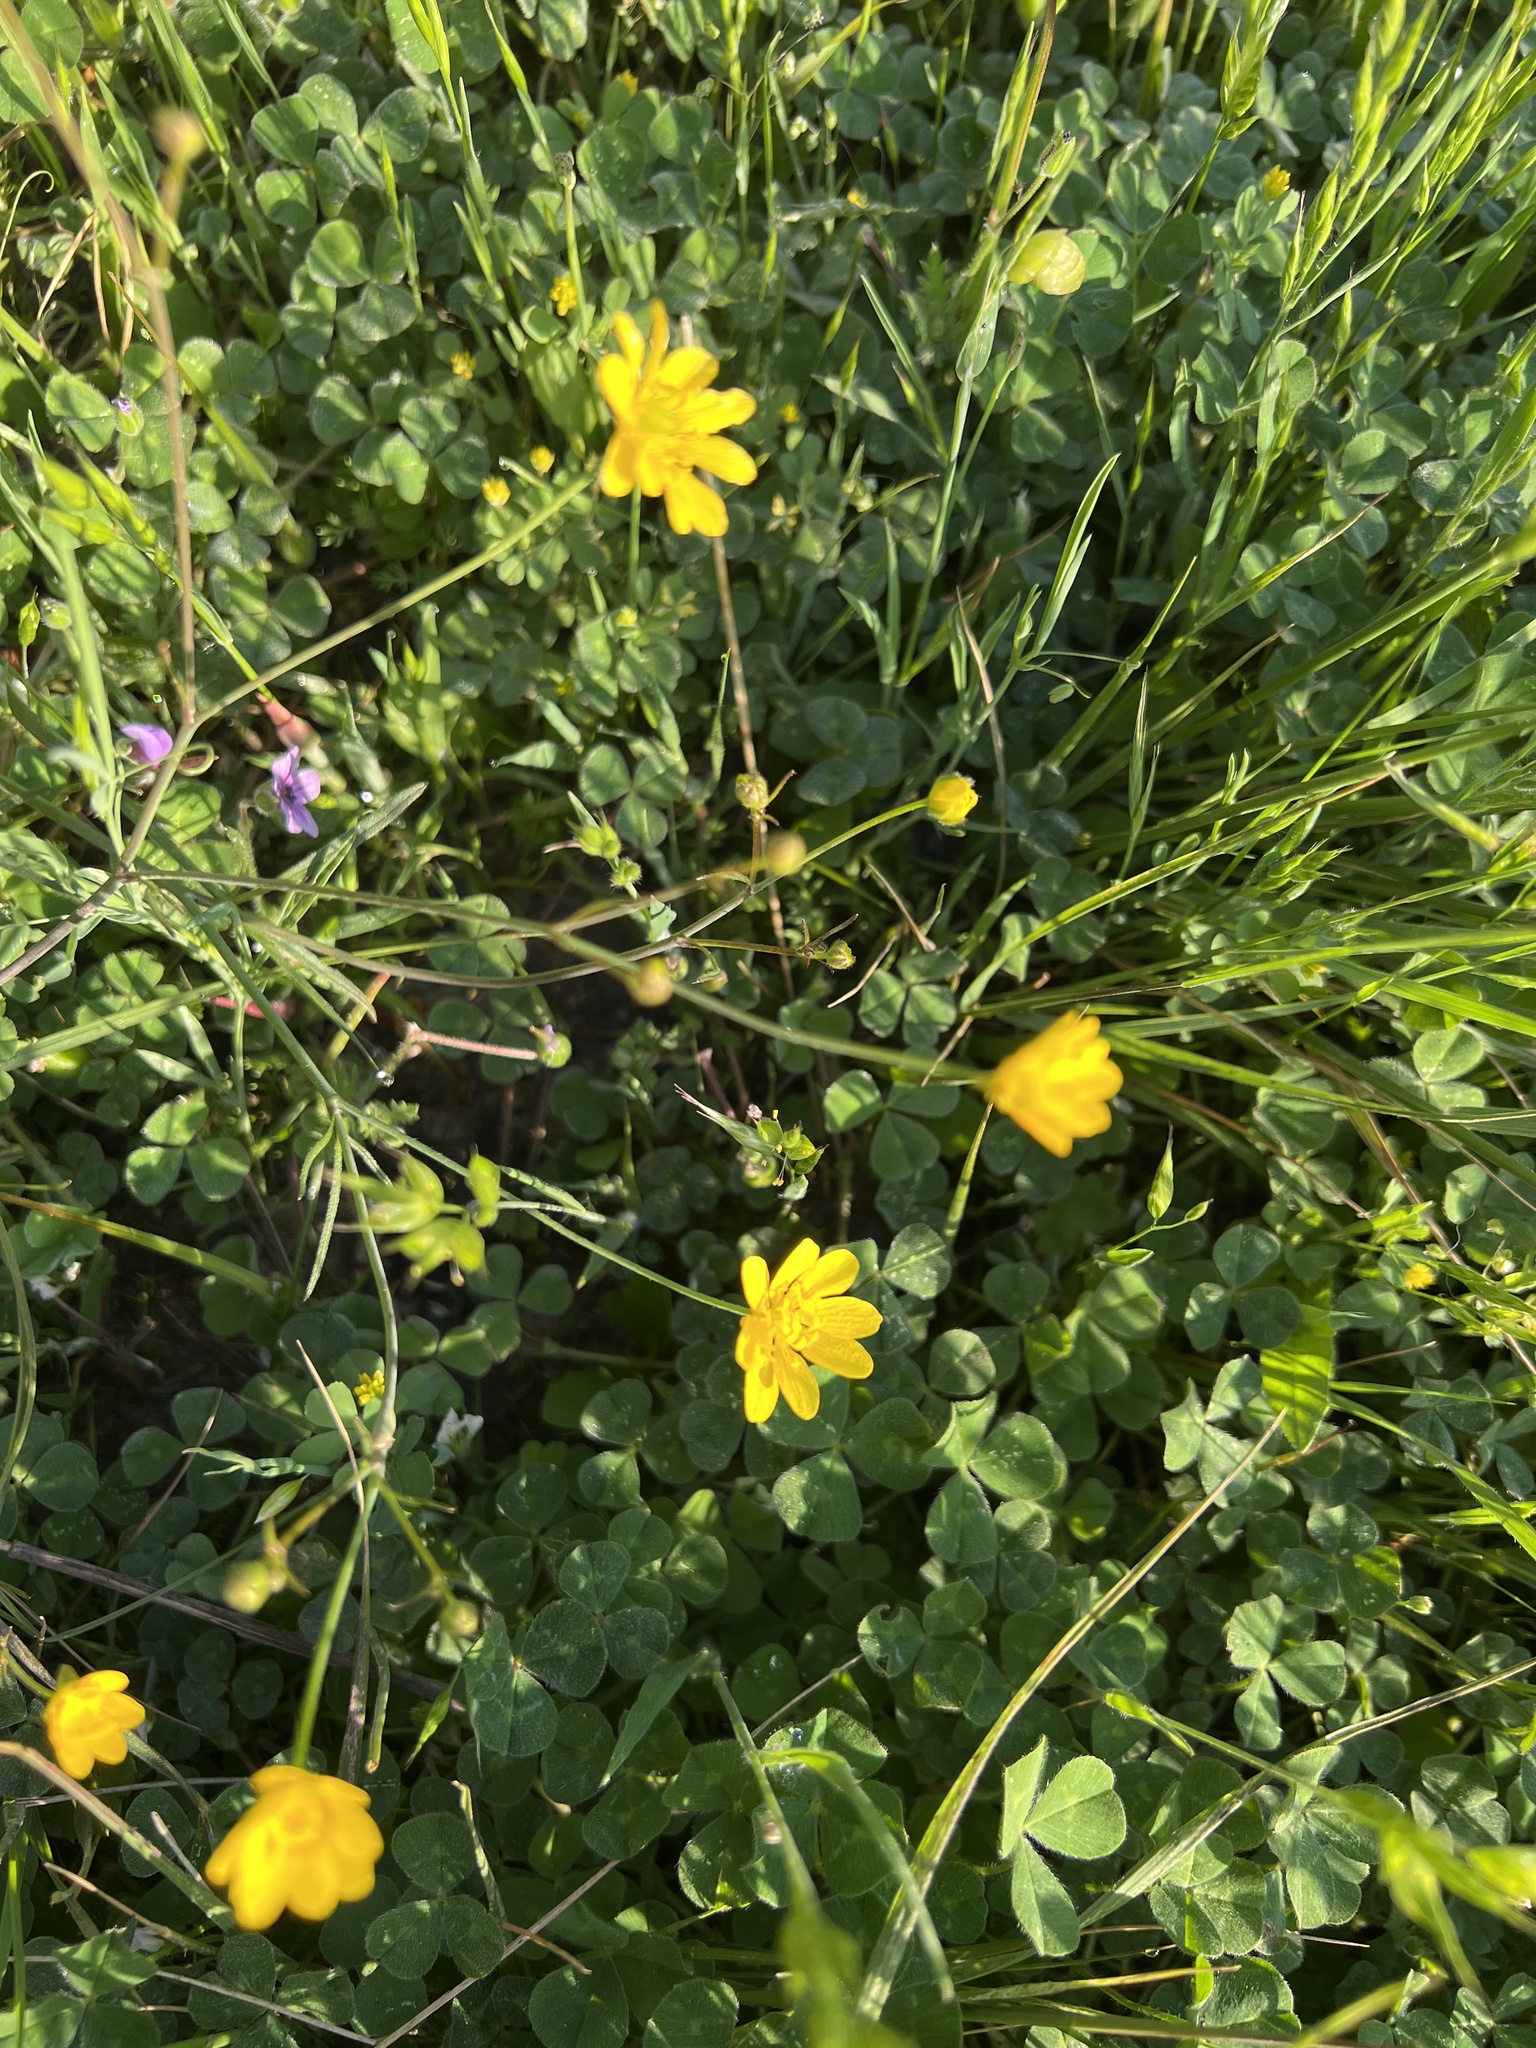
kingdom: Plantae
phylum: Tracheophyta
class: Magnoliopsida
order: Ranunculales
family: Ranunculaceae
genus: Ranunculus
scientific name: Ranunculus californicus
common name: California buttercup
